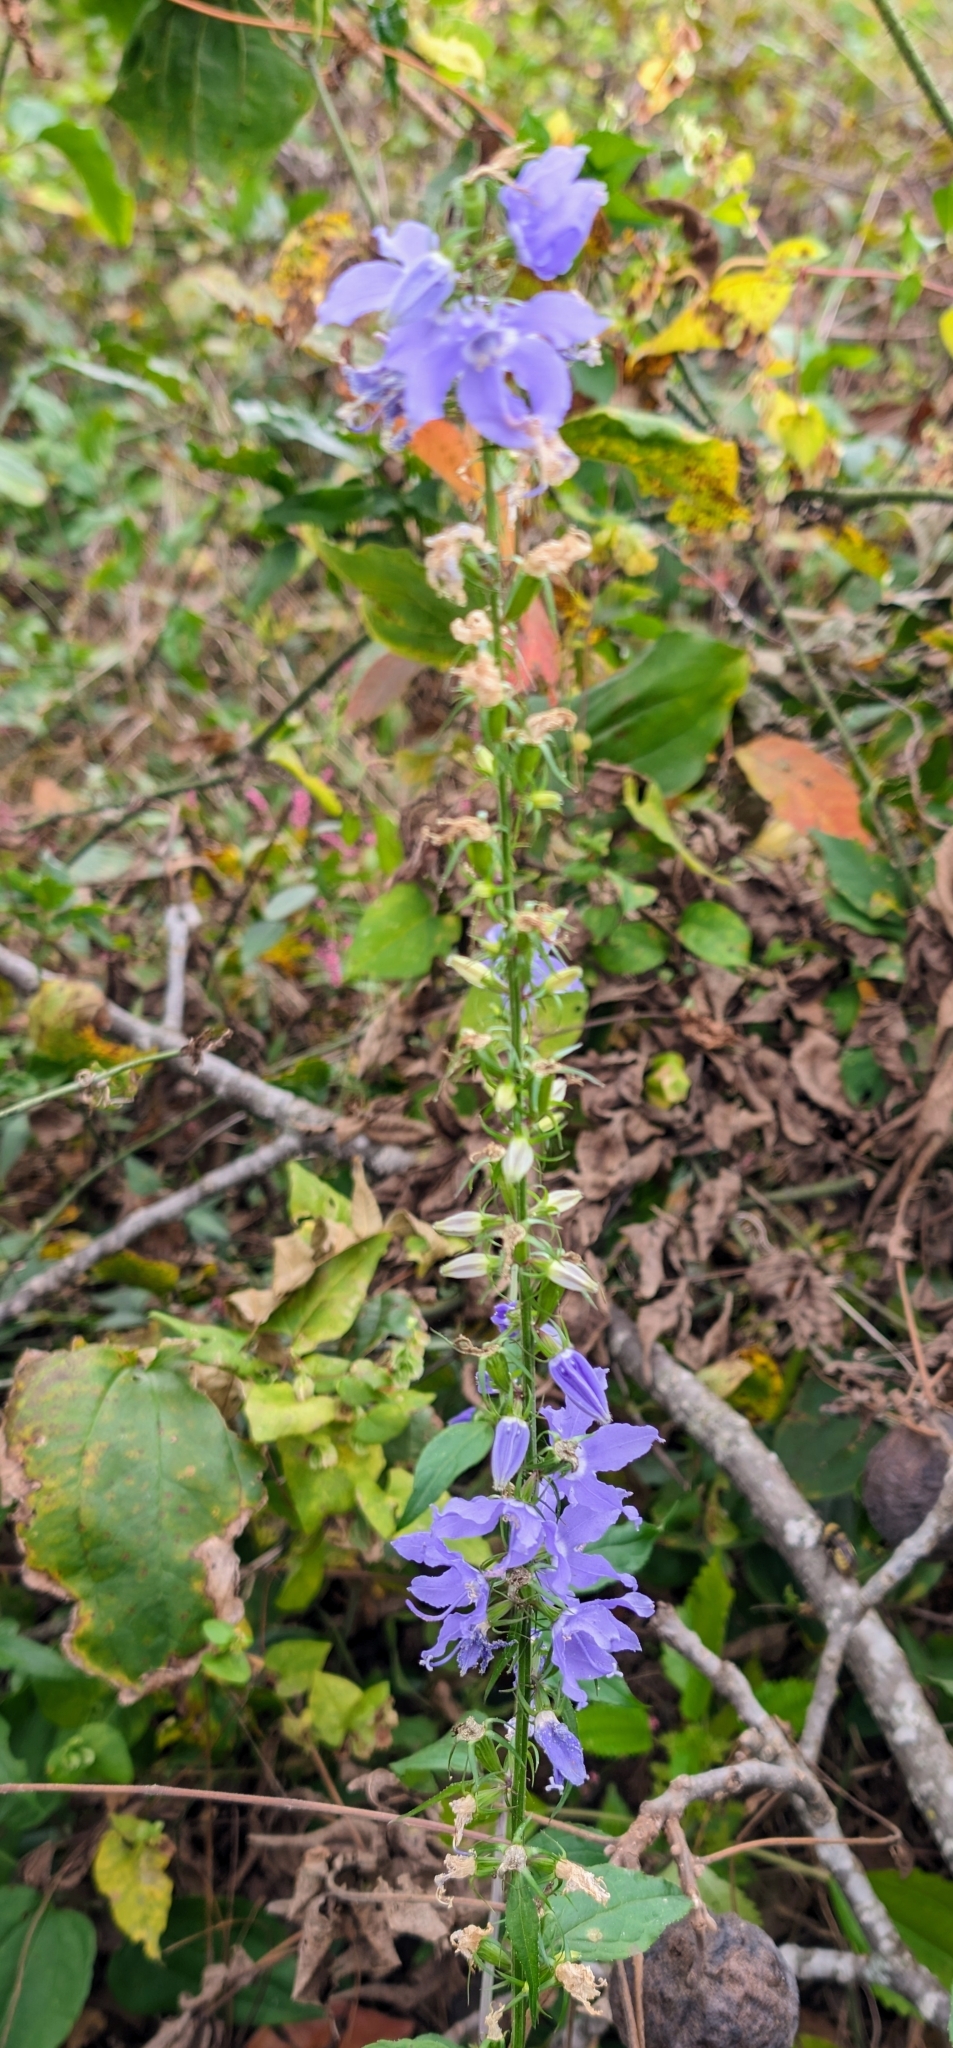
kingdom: Plantae
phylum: Tracheophyta
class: Magnoliopsida
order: Asterales
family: Campanulaceae
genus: Campanulastrum
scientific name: Campanulastrum americanum
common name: American bellflower
